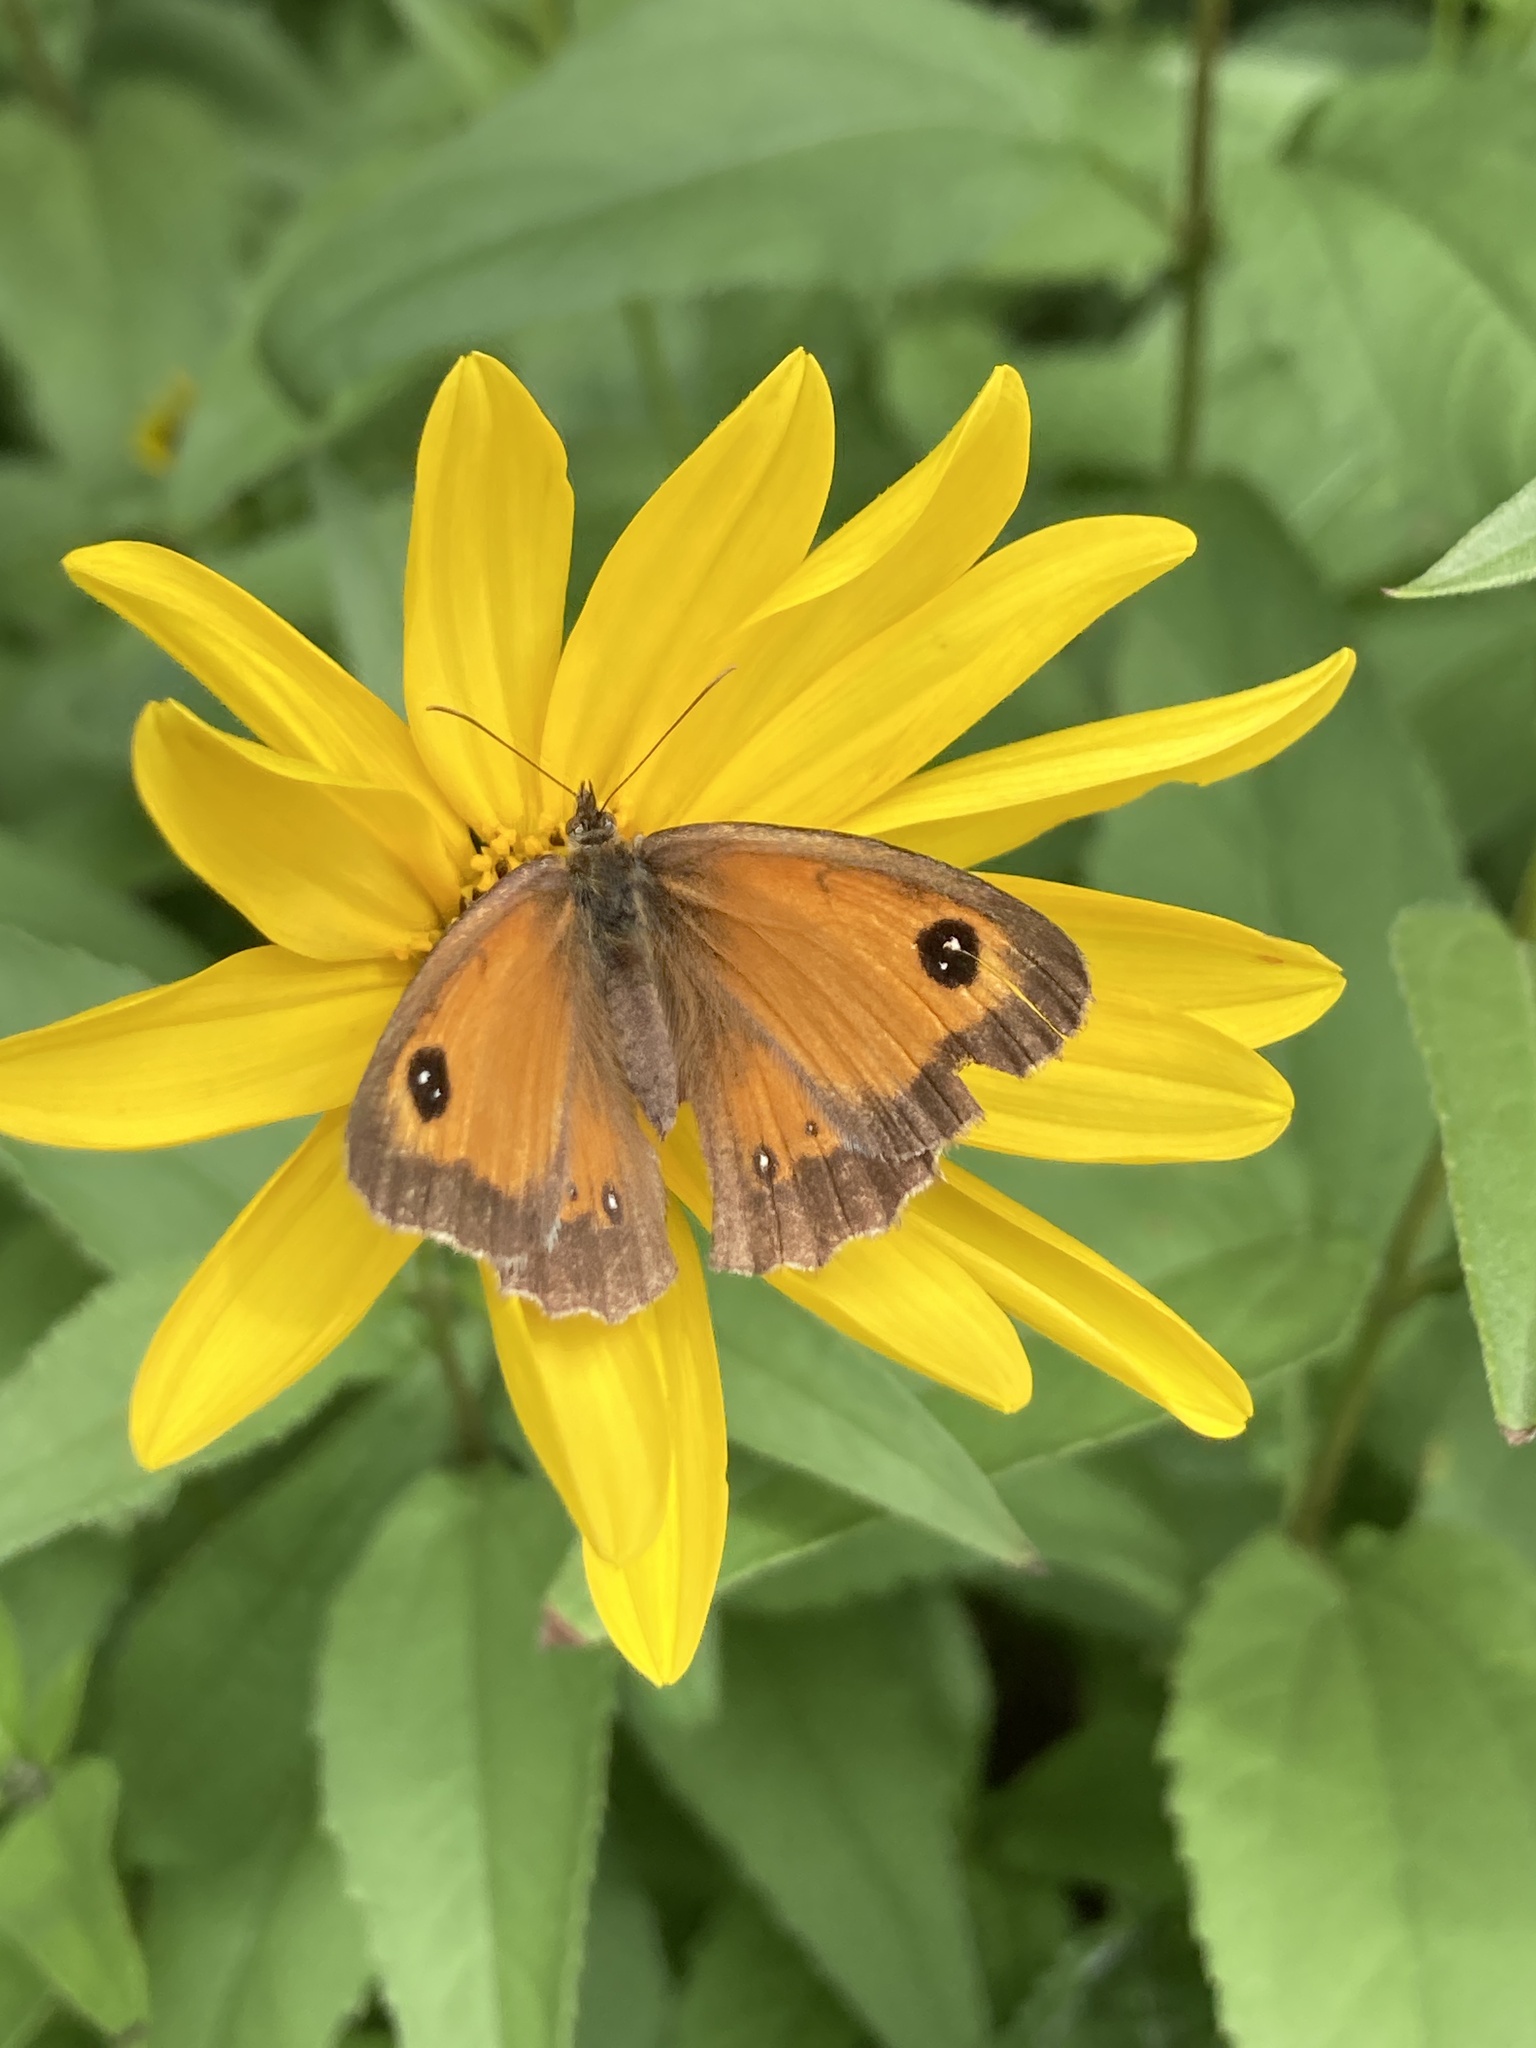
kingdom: Animalia
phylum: Arthropoda
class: Insecta
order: Lepidoptera
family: Nymphalidae
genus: Pyronia
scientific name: Pyronia tithonus
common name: Gatekeeper
